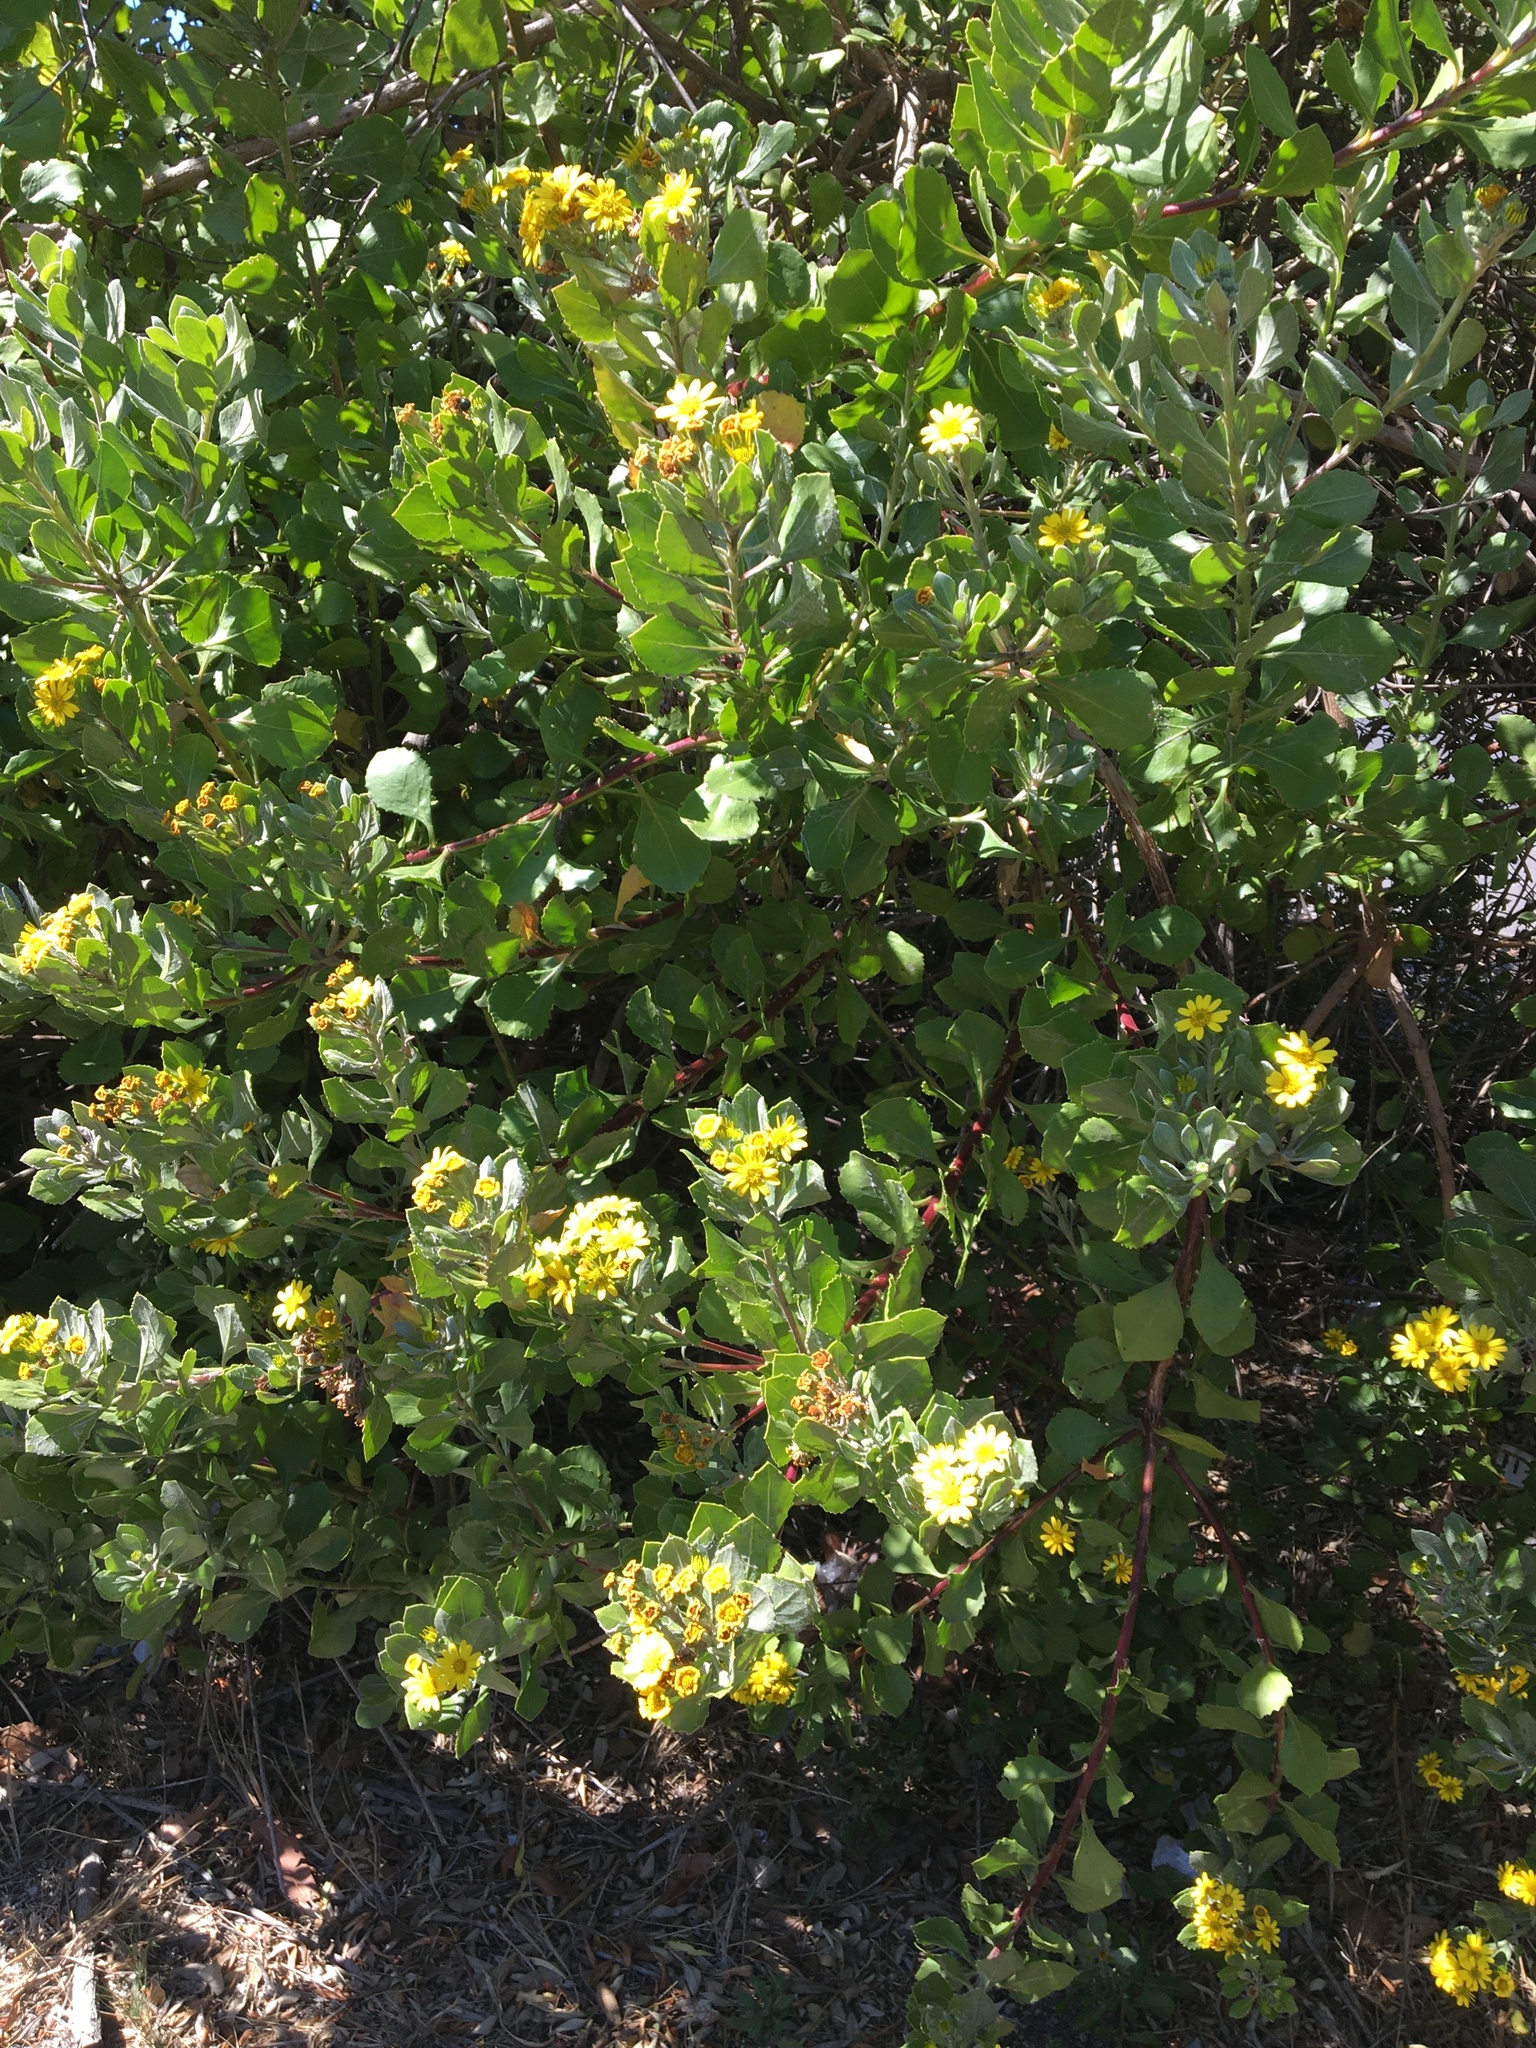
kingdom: Plantae
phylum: Tracheophyta
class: Magnoliopsida
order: Asterales
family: Asteraceae
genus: Osteospermum
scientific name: Osteospermum moniliferum
